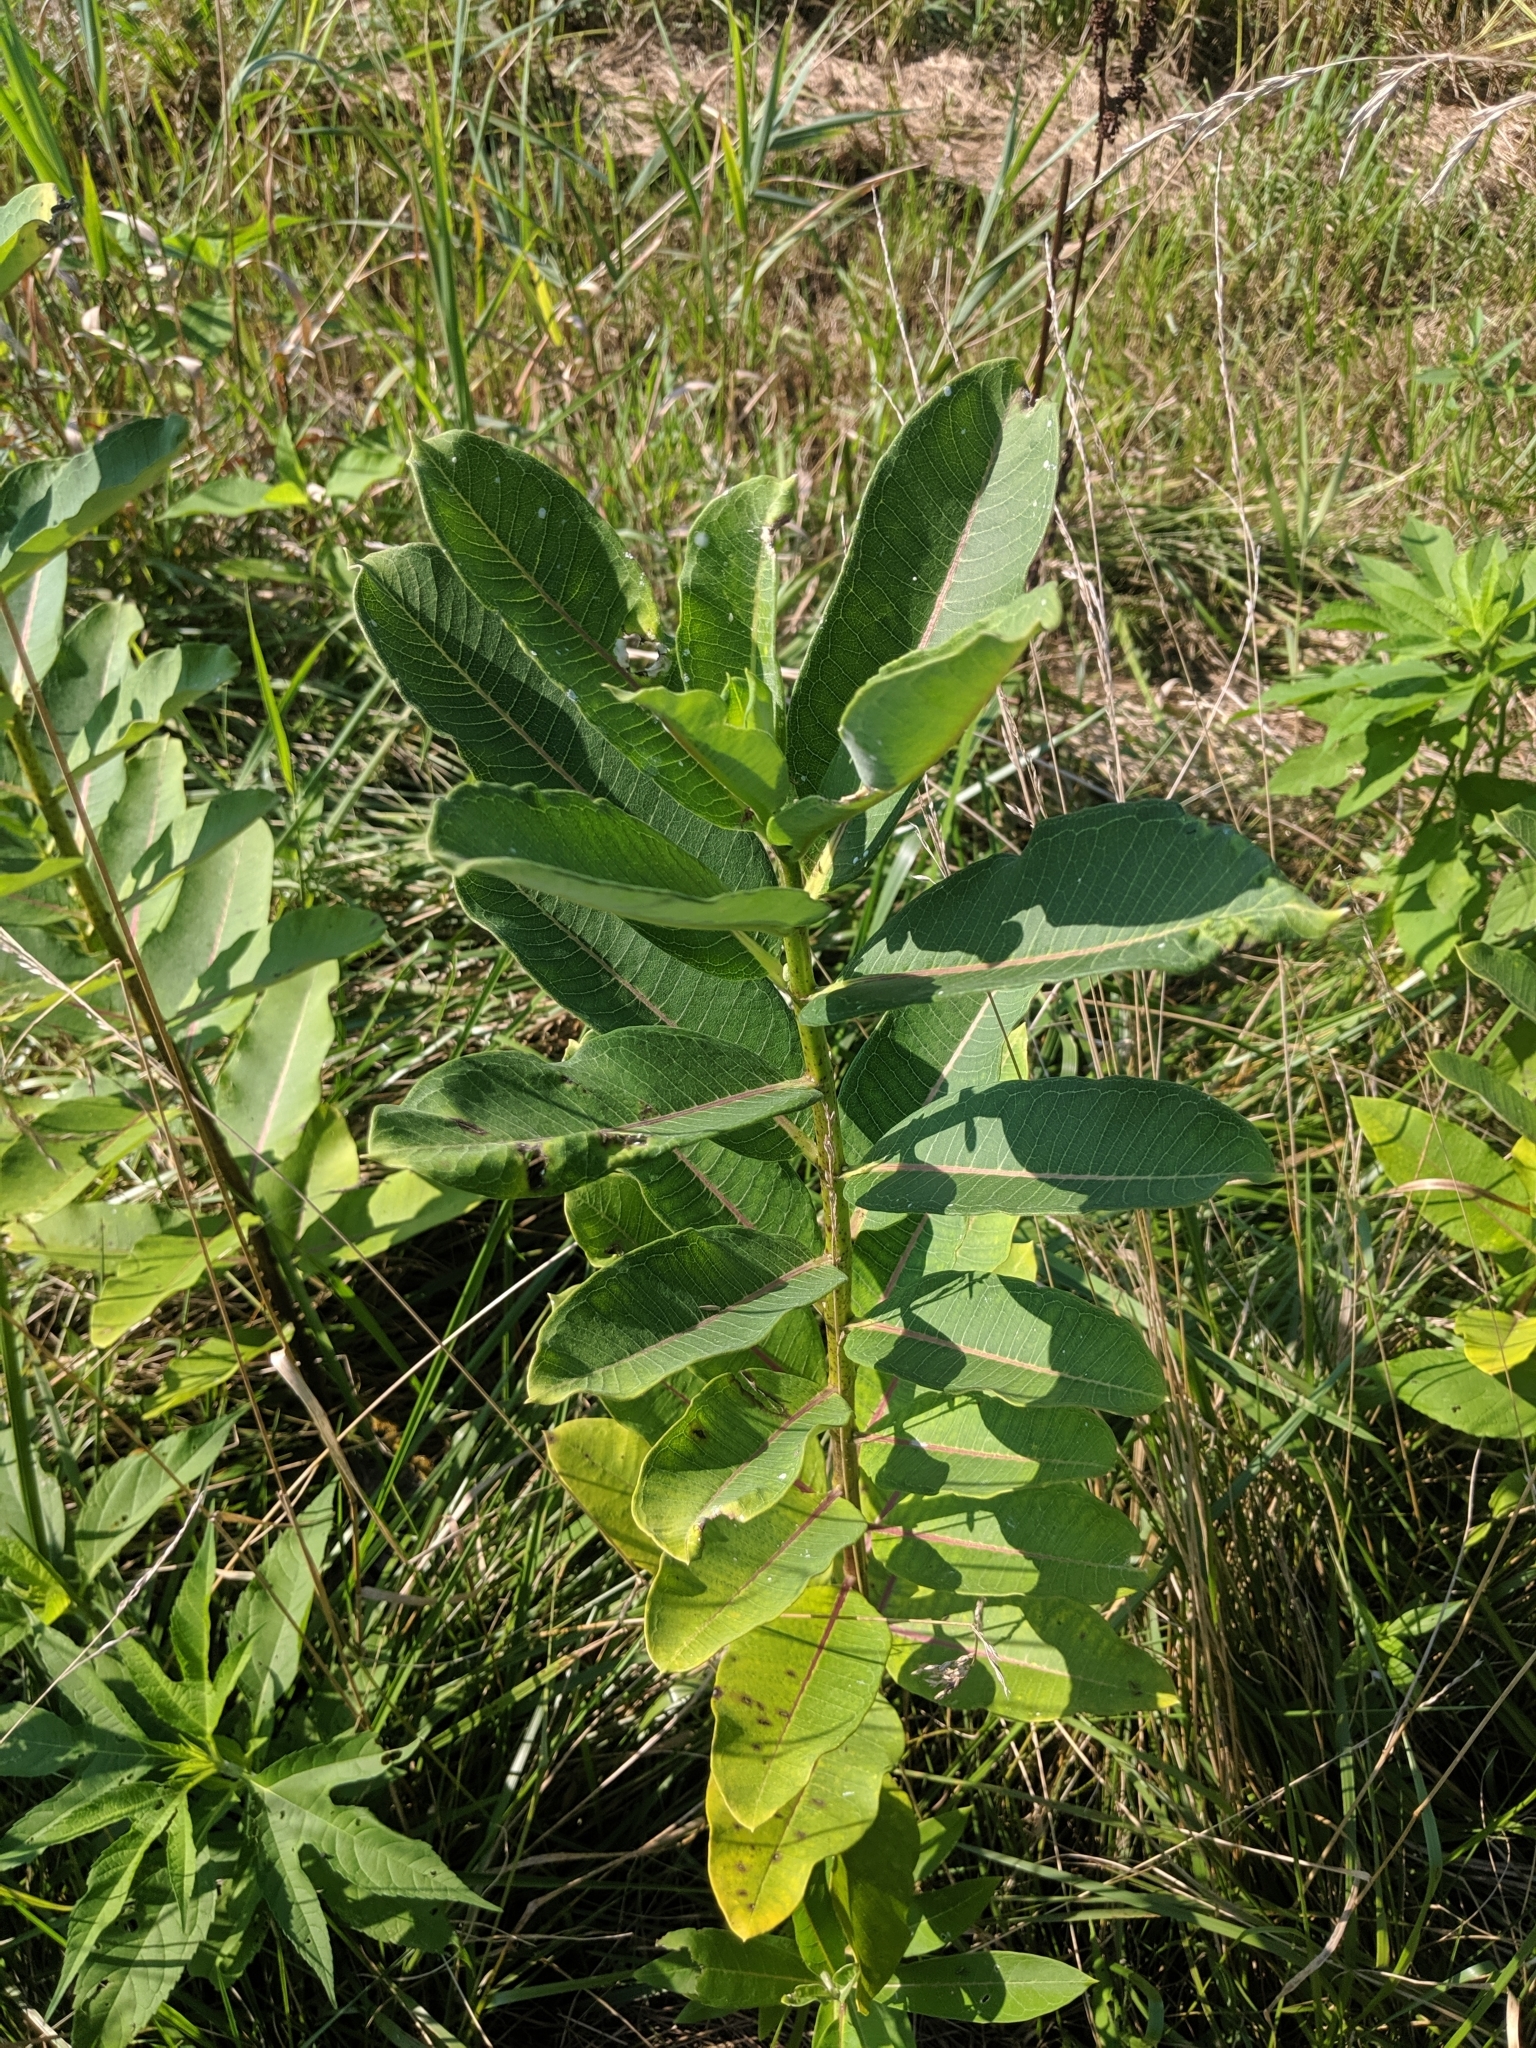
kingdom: Plantae
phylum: Tracheophyta
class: Magnoliopsida
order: Gentianales
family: Apocynaceae
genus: Asclepias
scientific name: Asclepias syriaca
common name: Common milkweed
